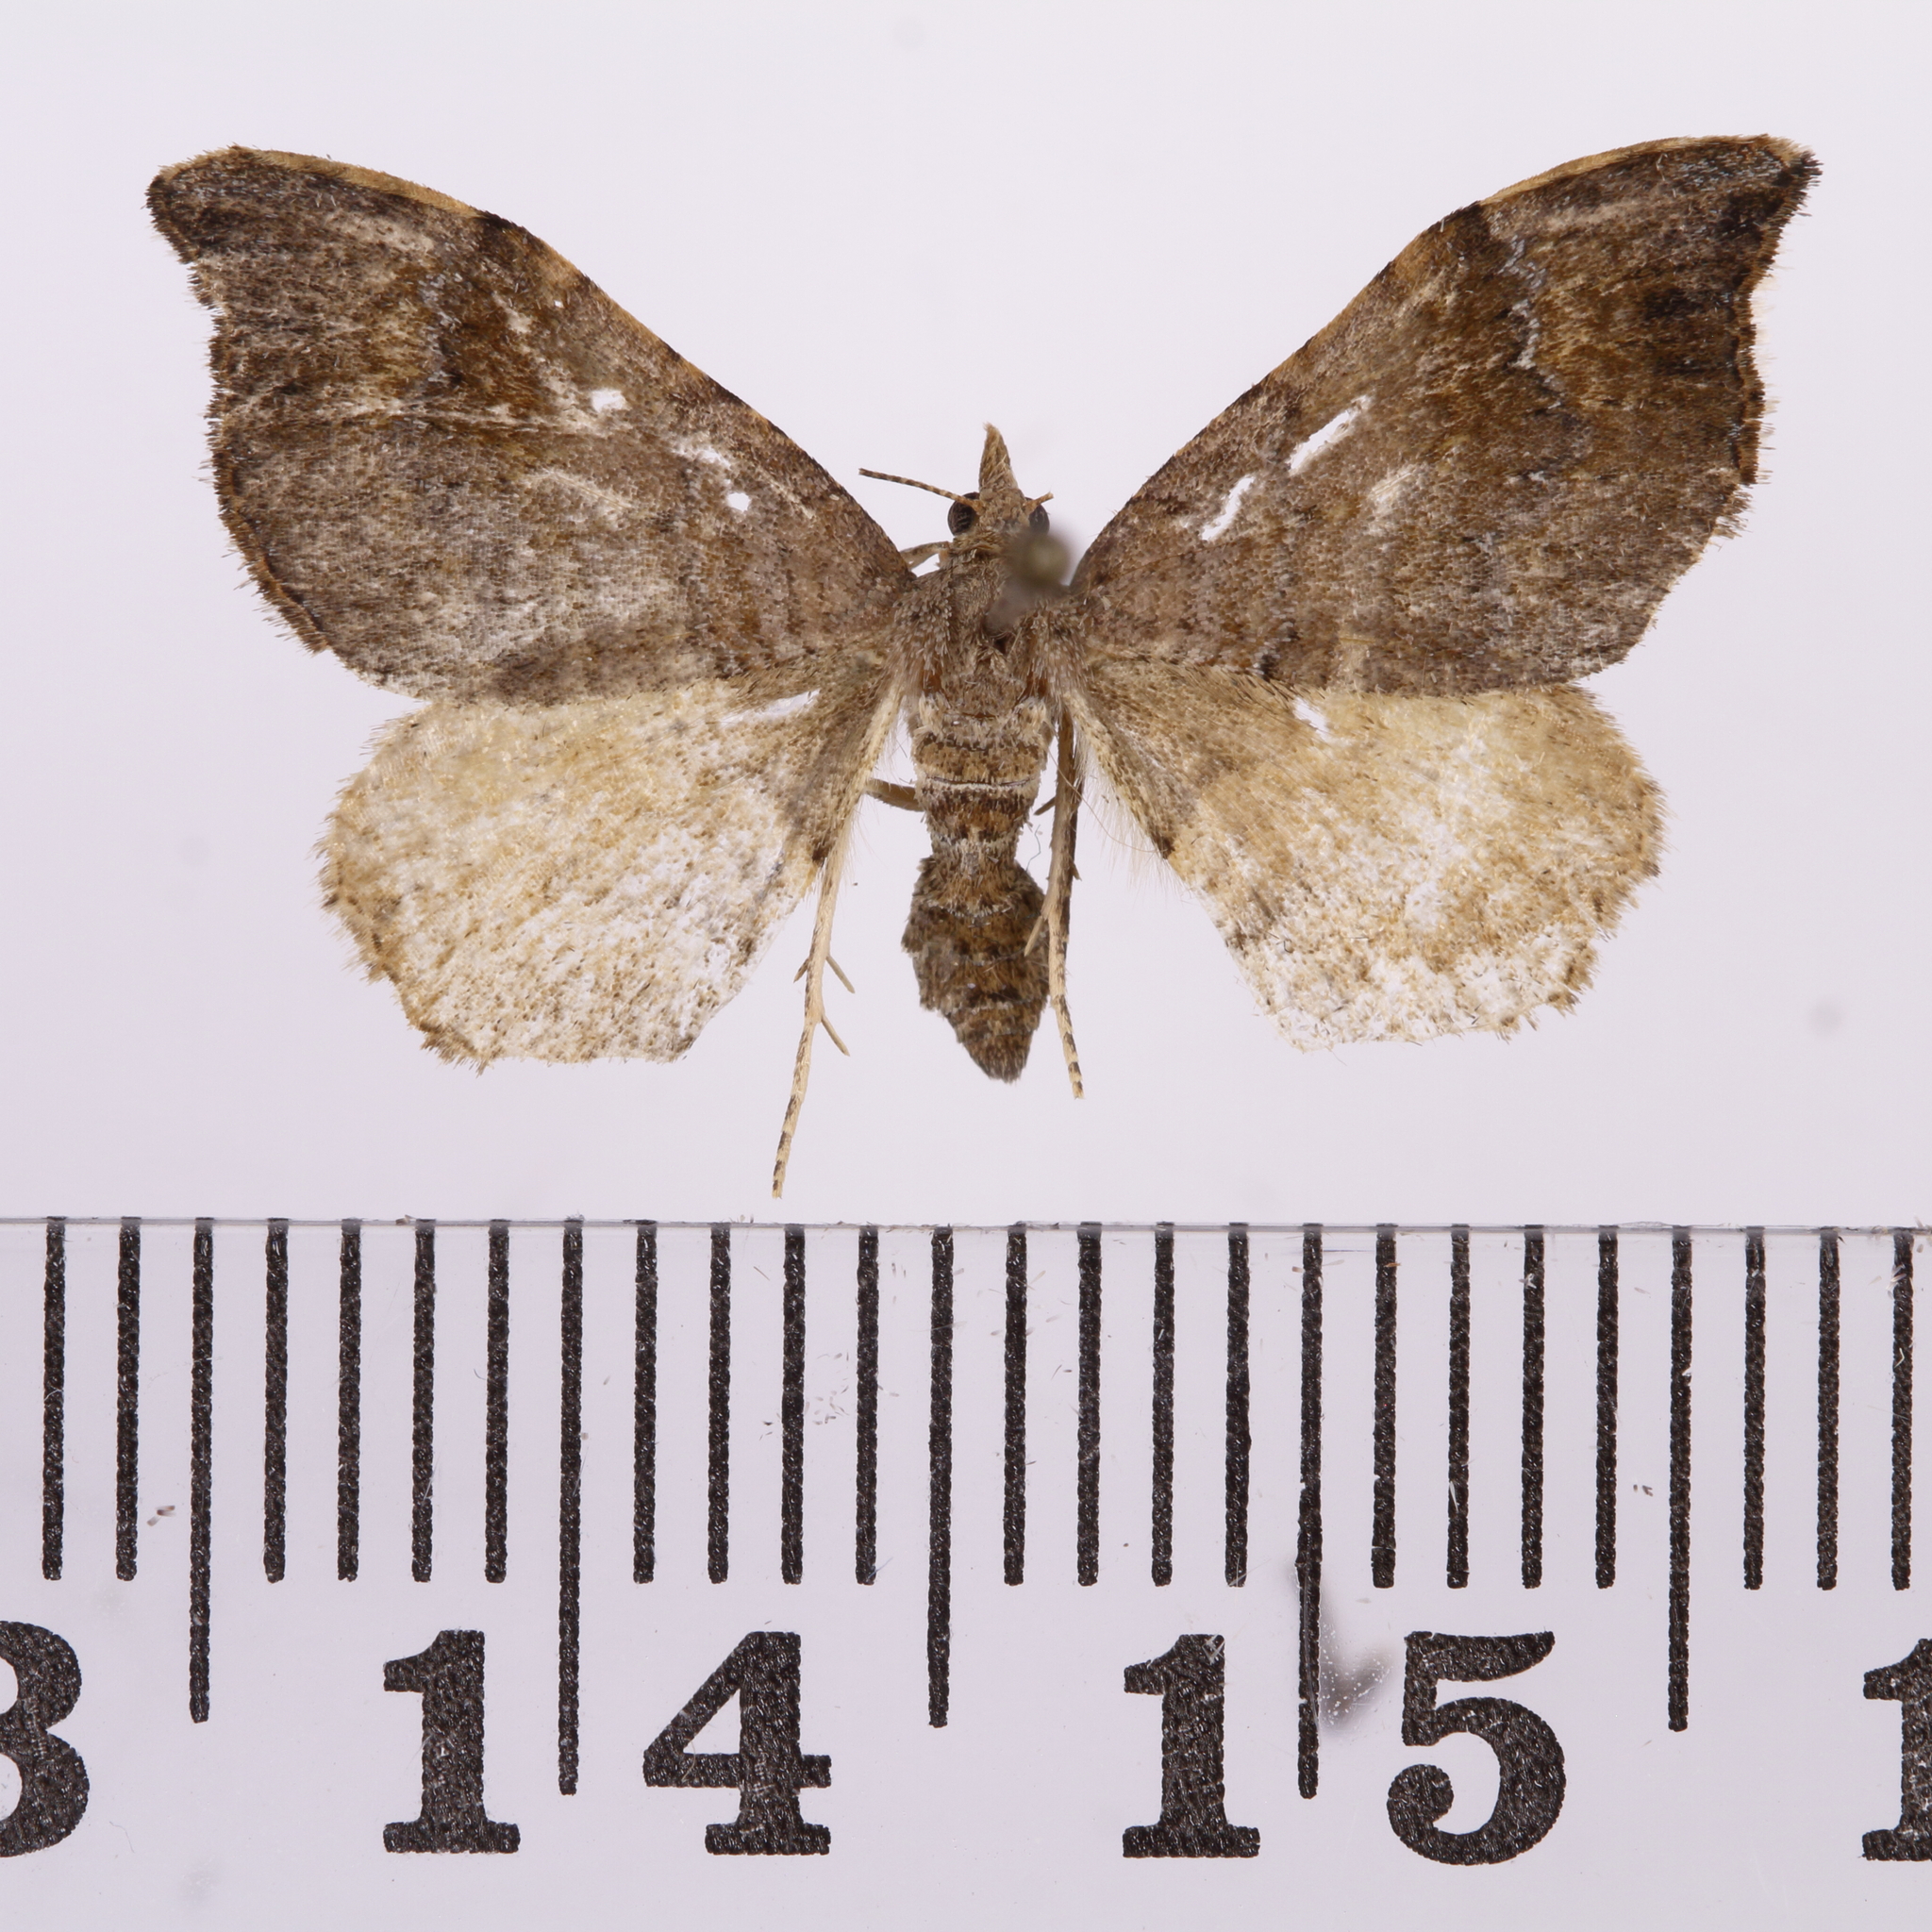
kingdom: Animalia
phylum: Arthropoda
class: Insecta
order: Lepidoptera
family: Geometridae
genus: Homodotis
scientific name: Homodotis megaspilata
